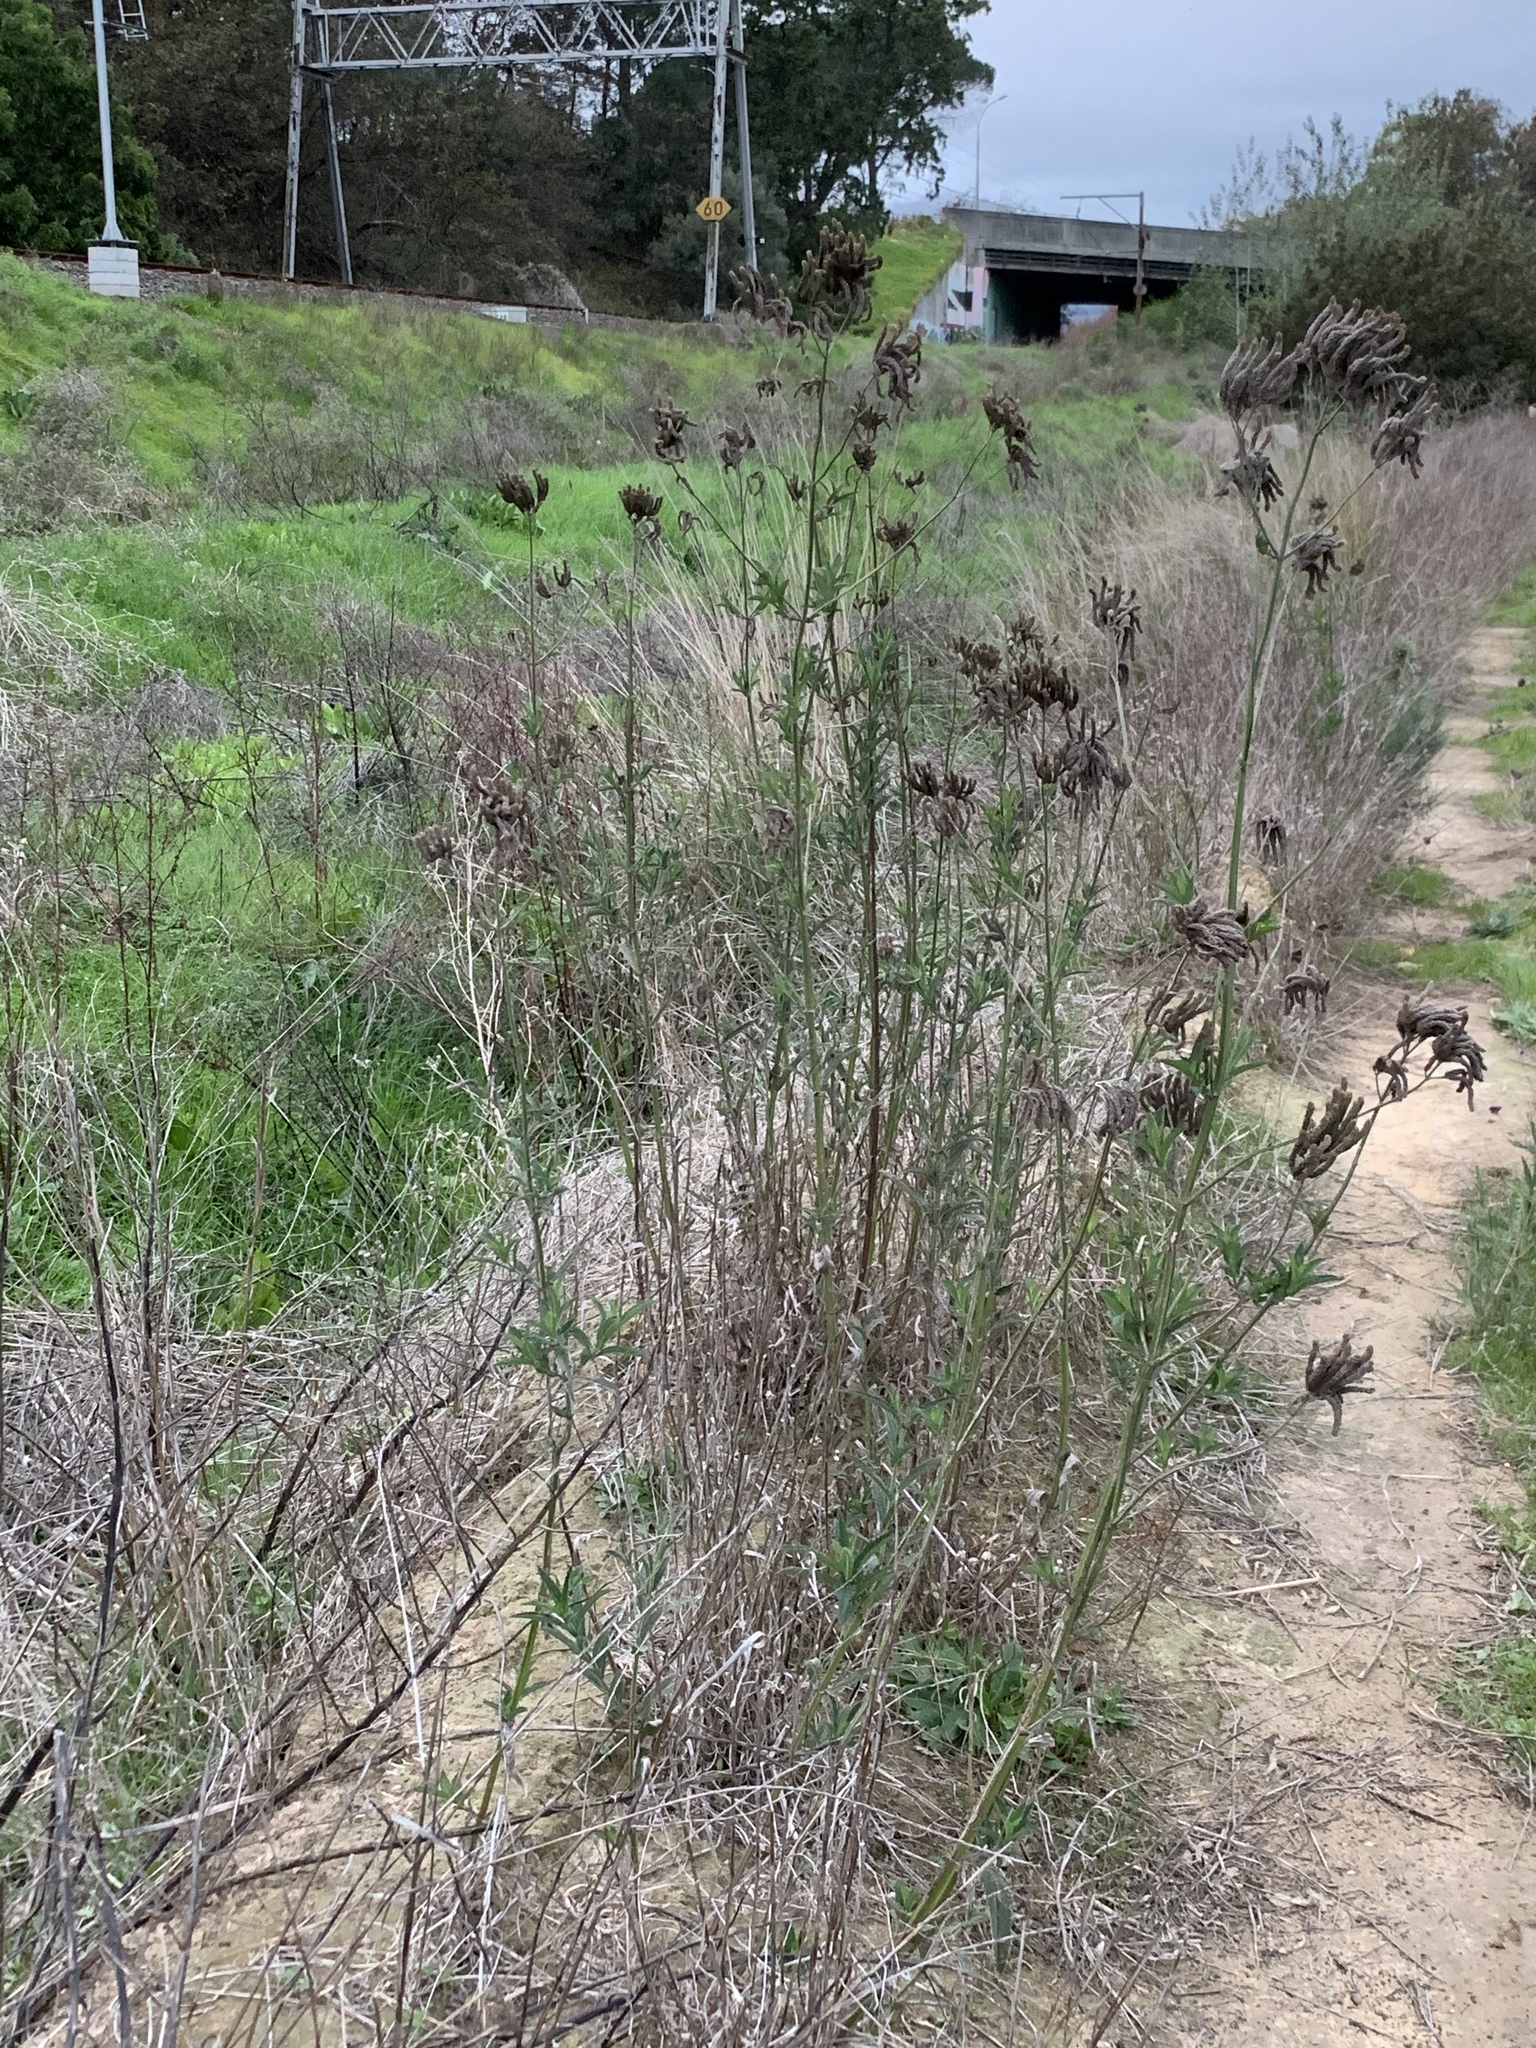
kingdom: Plantae
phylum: Tracheophyta
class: Magnoliopsida
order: Lamiales
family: Verbenaceae
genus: Verbena
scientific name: Verbena bonariensis
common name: Purpletop vervain
